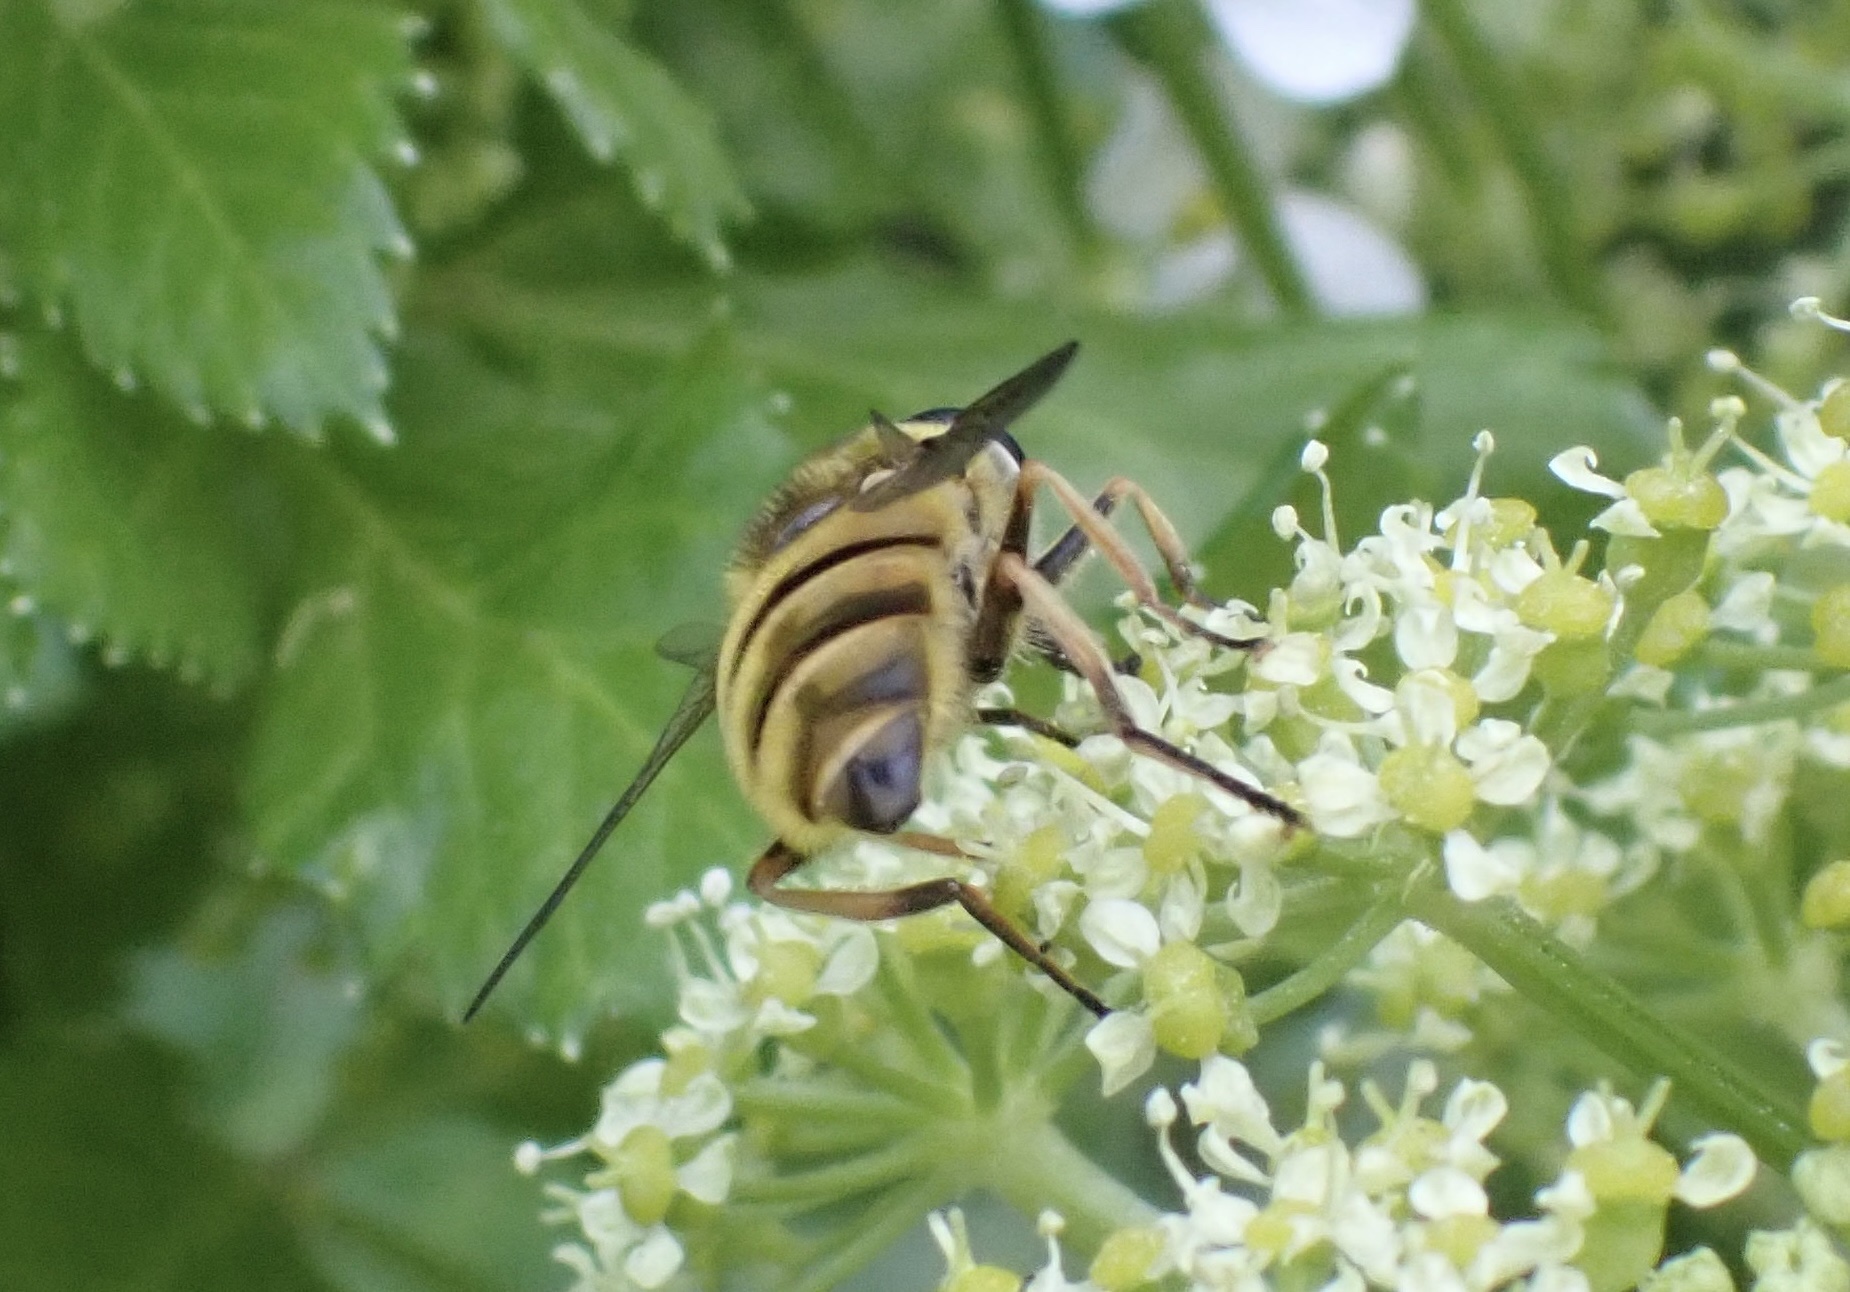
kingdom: Animalia
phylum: Arthropoda
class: Insecta
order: Diptera
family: Syrphidae
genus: Myathropa
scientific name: Myathropa florea
